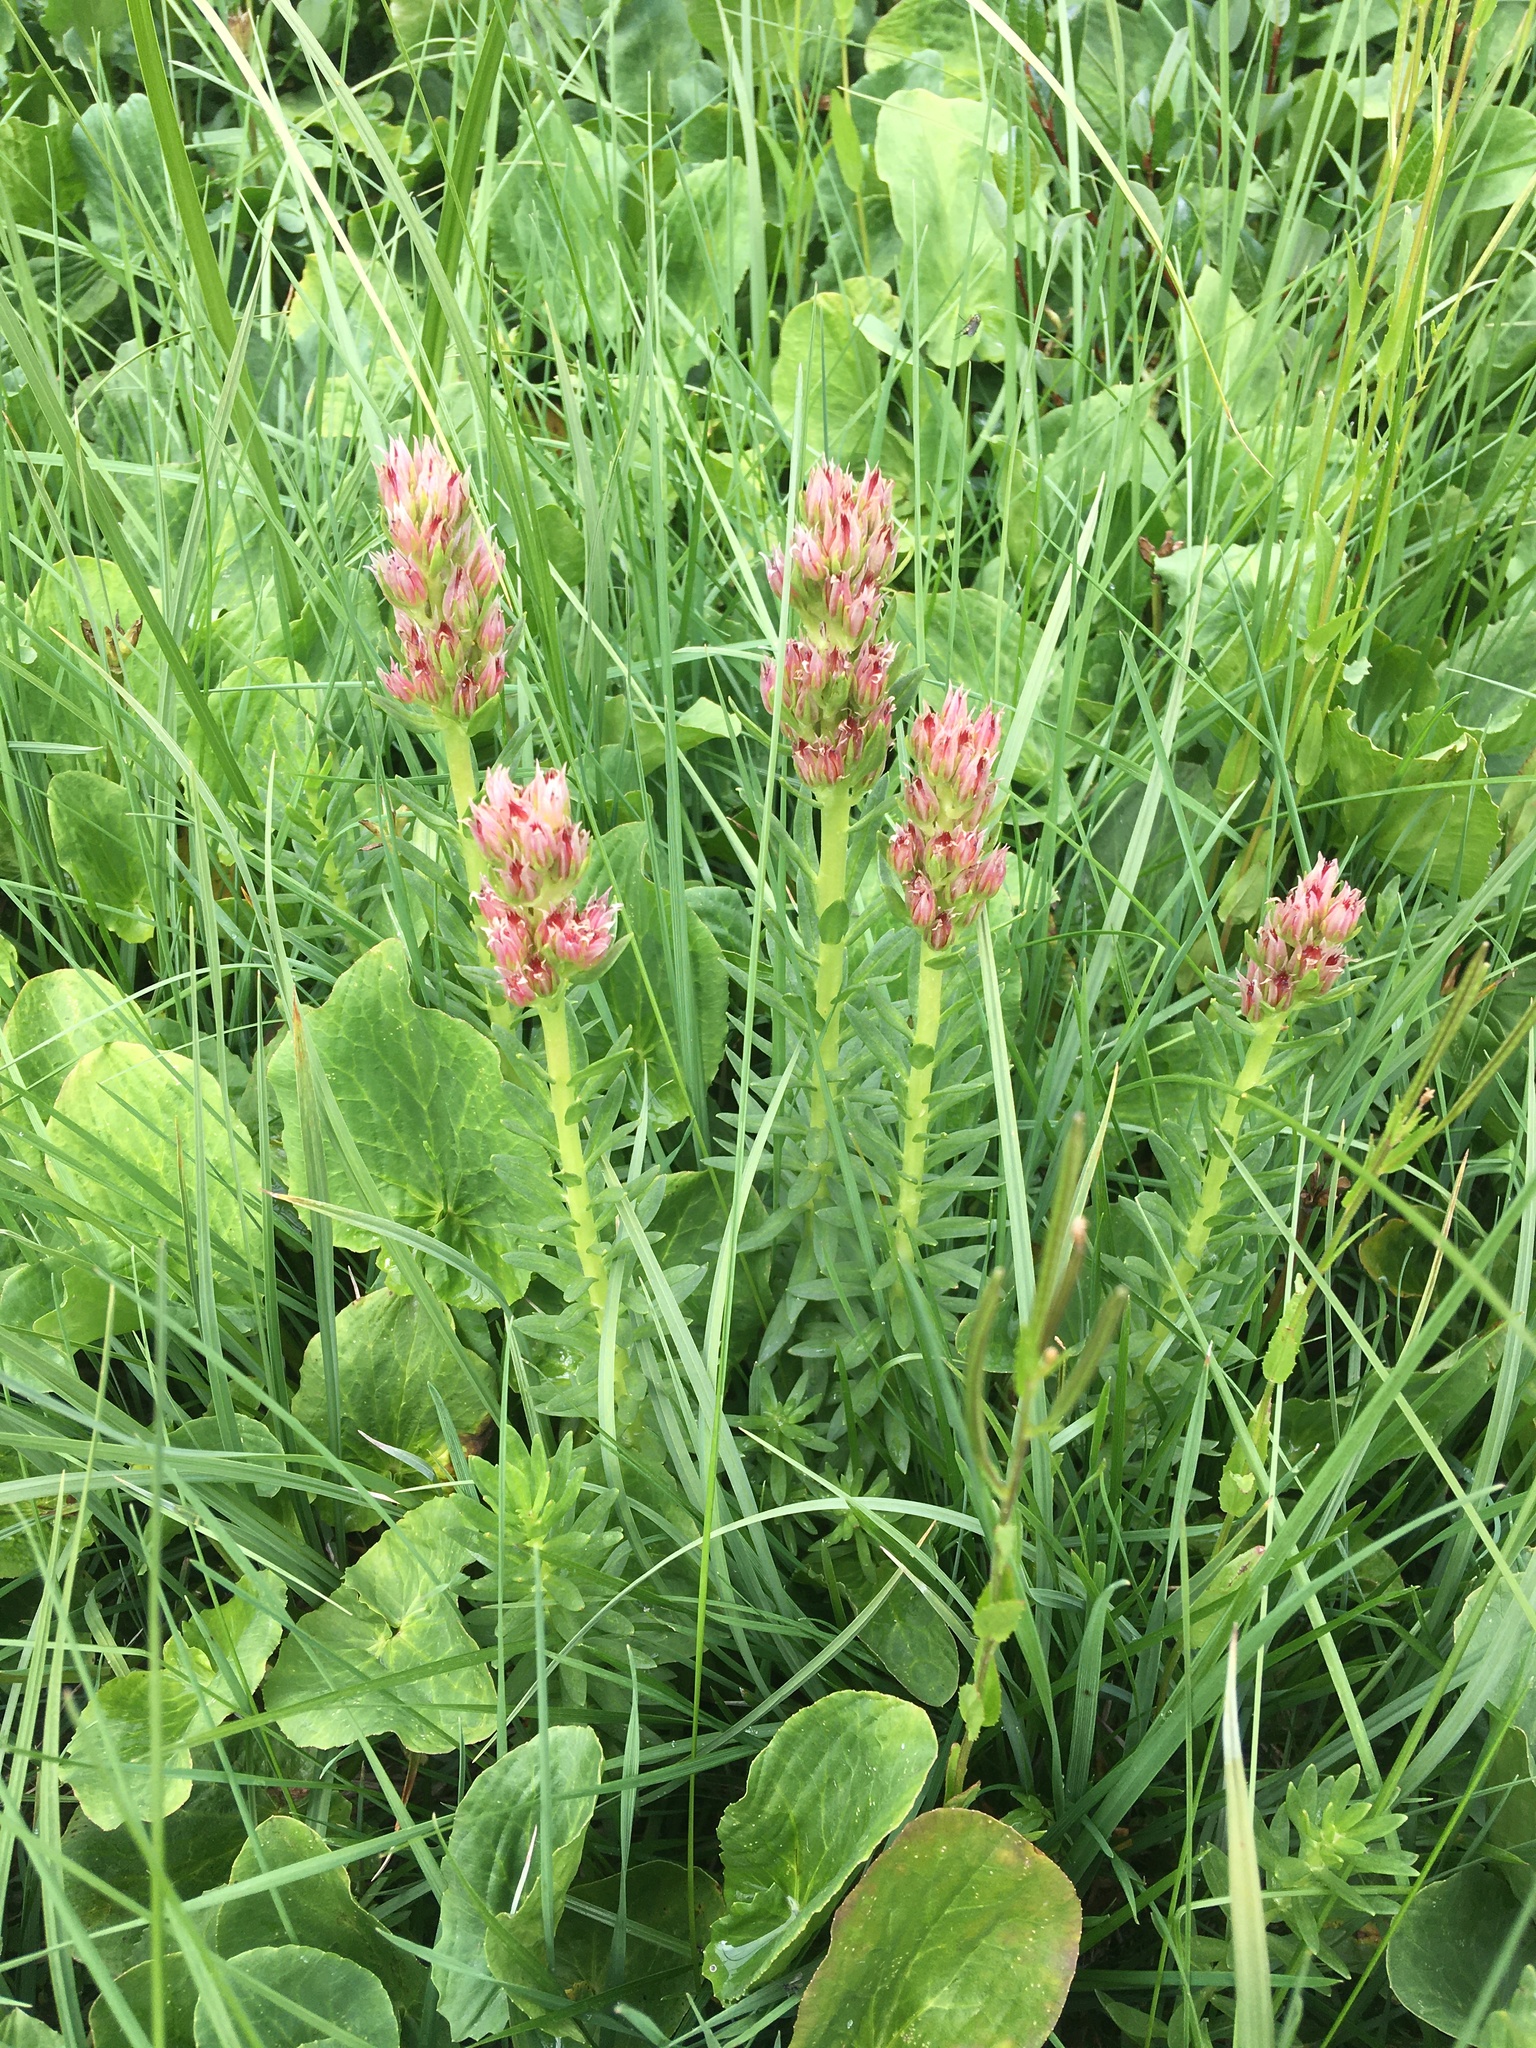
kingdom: Plantae
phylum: Tracheophyta
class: Magnoliopsida
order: Saxifragales
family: Crassulaceae
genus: Rhodiola
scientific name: Rhodiola rhodantha
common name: Red orpine
